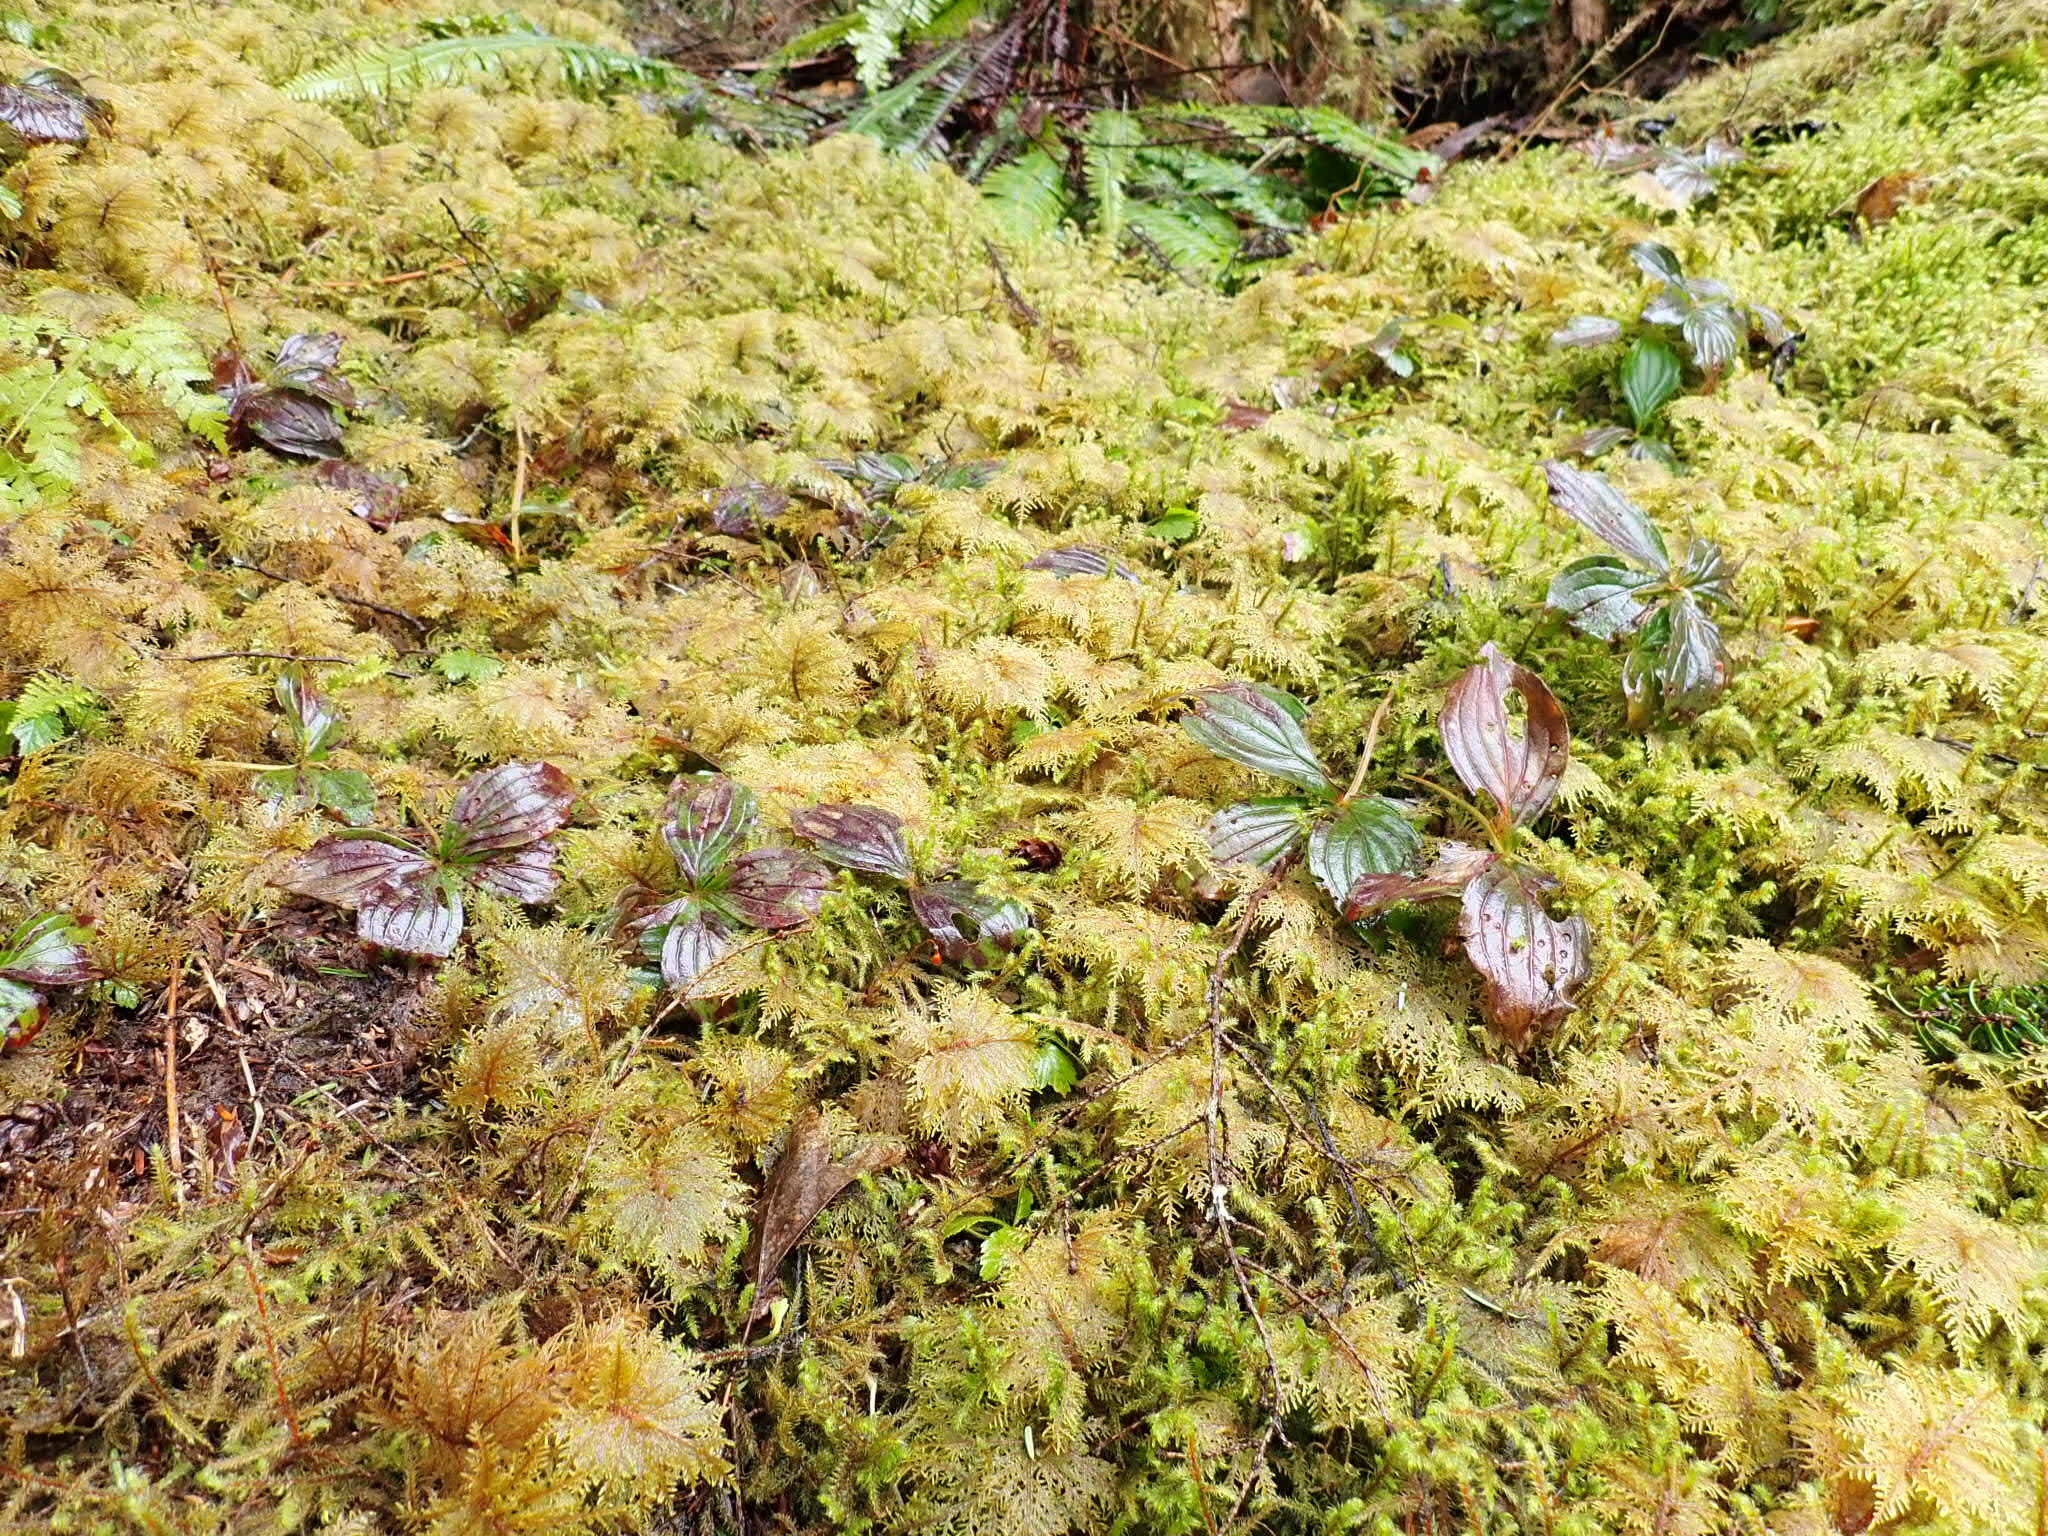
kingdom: Plantae
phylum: Tracheophyta
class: Magnoliopsida
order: Cornales
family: Cornaceae
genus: Cornus
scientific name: Cornus unalaschkensis
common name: Alaska bunchberry
